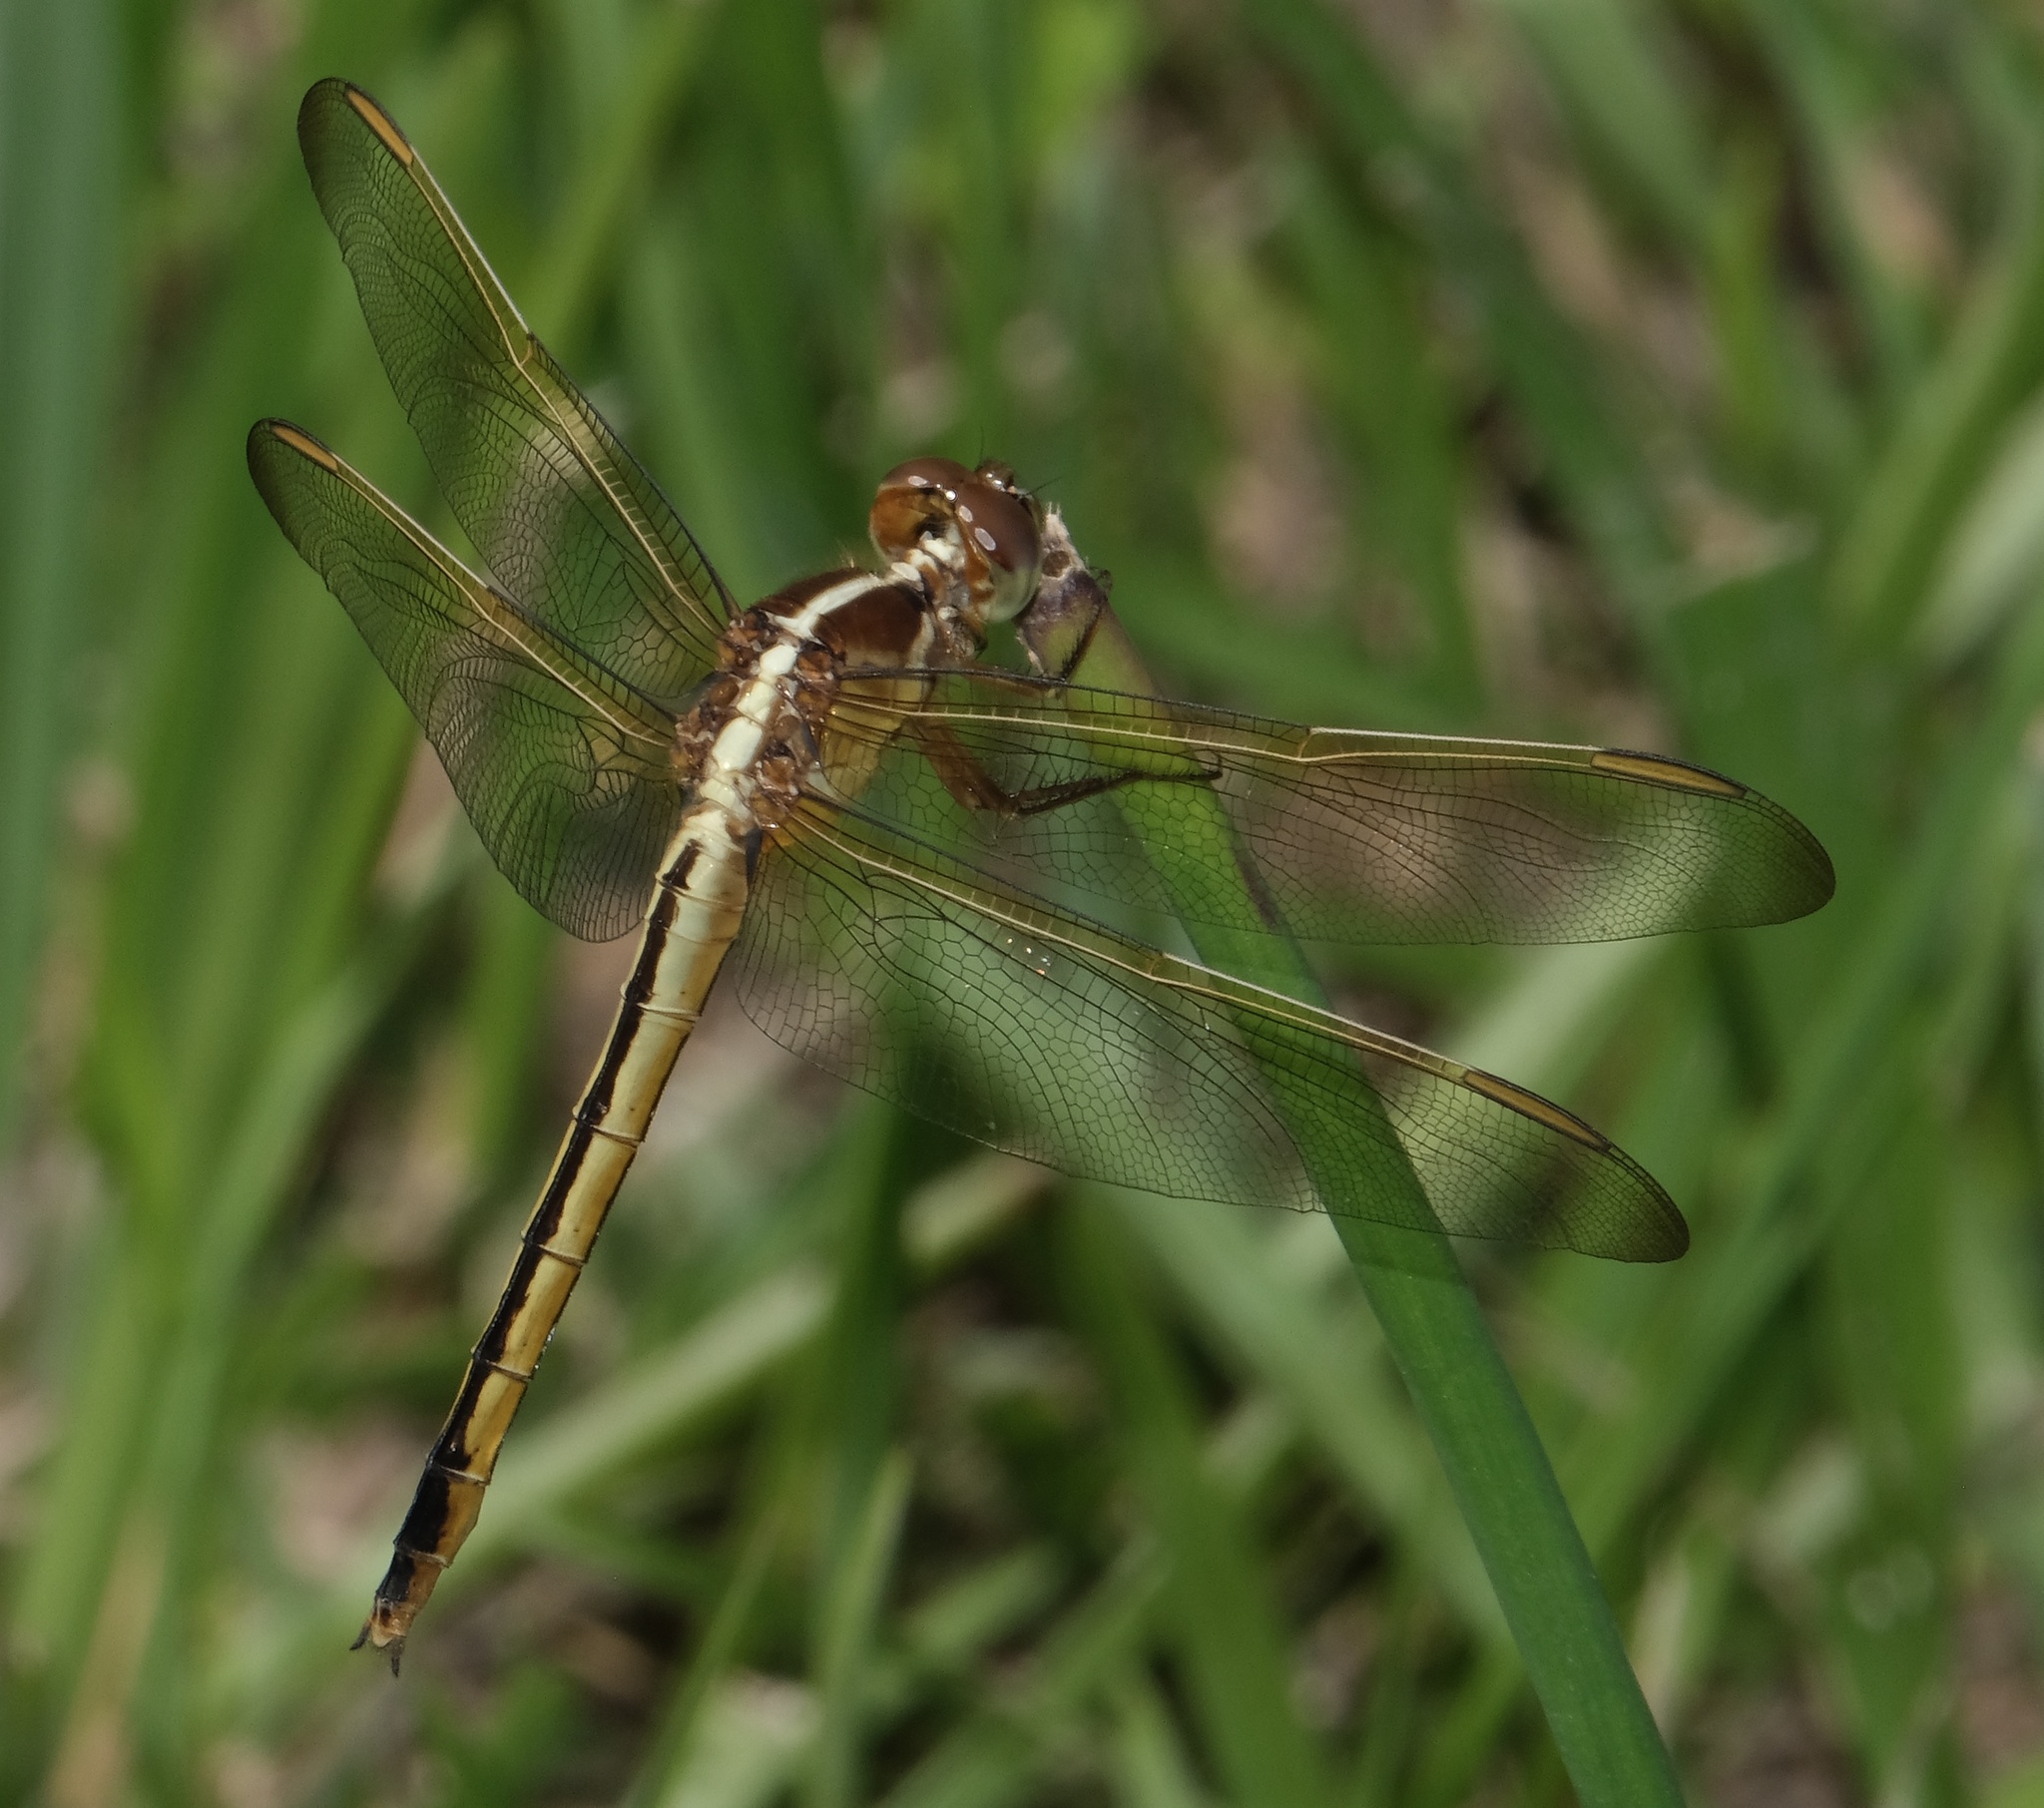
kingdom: Animalia
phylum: Arthropoda
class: Insecta
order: Odonata
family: Libellulidae
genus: Libellula
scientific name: Libellula needhami
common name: Needham's skimmer
